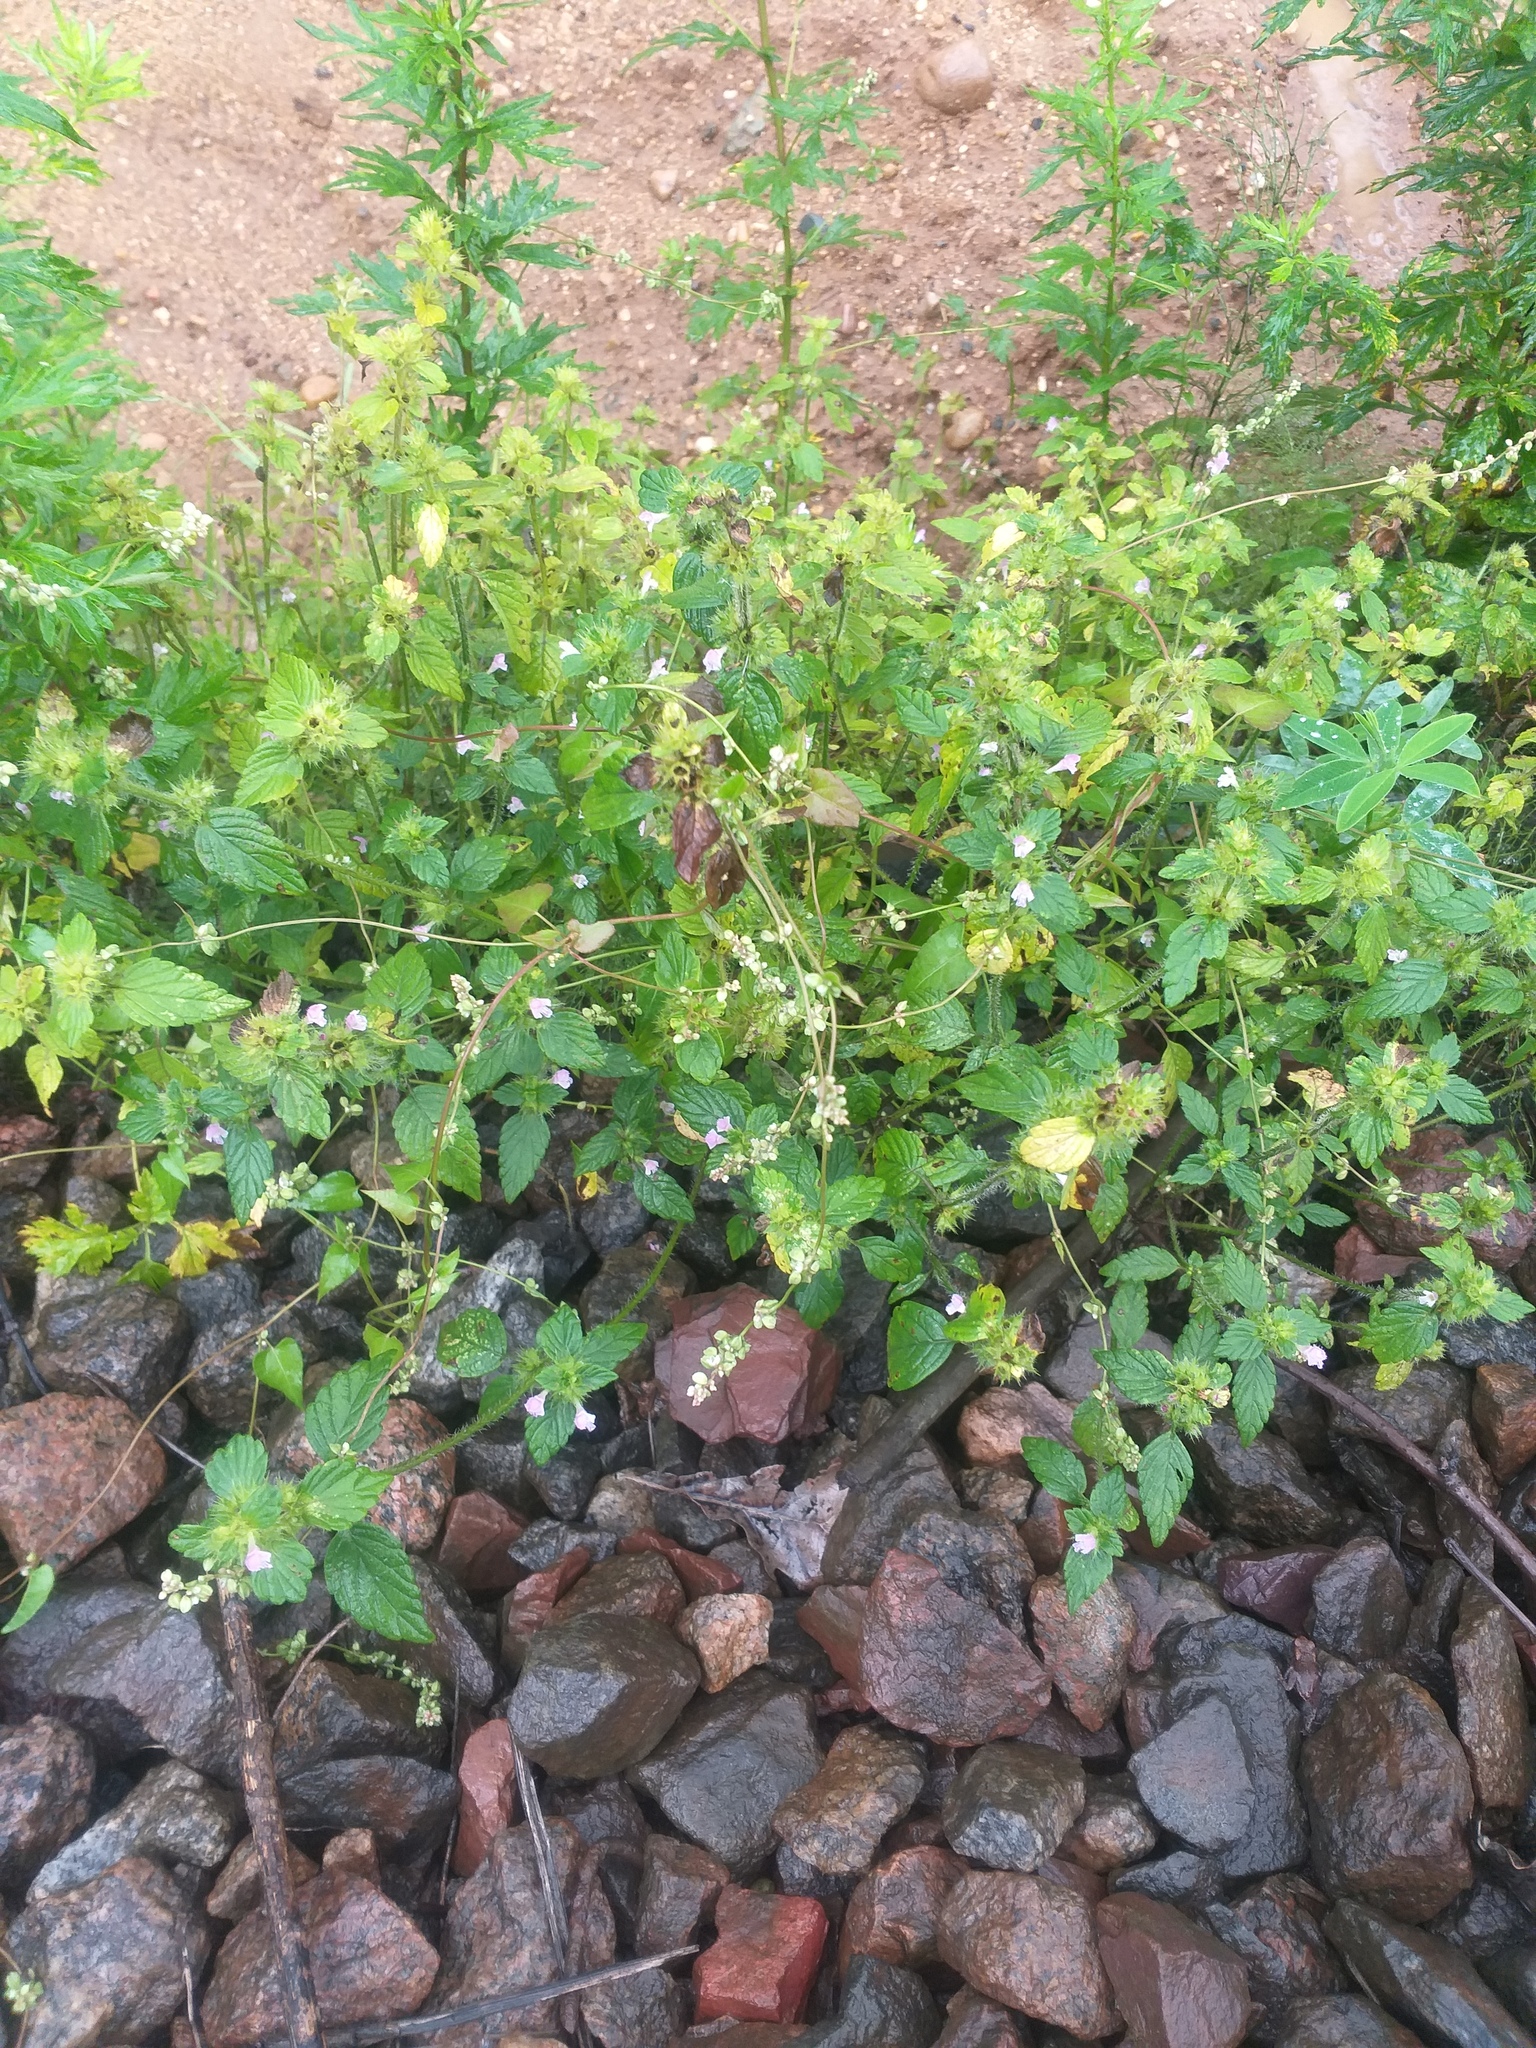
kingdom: Plantae
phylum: Tracheophyta
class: Magnoliopsida
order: Lamiales
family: Lamiaceae
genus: Galeopsis
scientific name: Galeopsis bifida
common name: Bifid hemp-nettle
